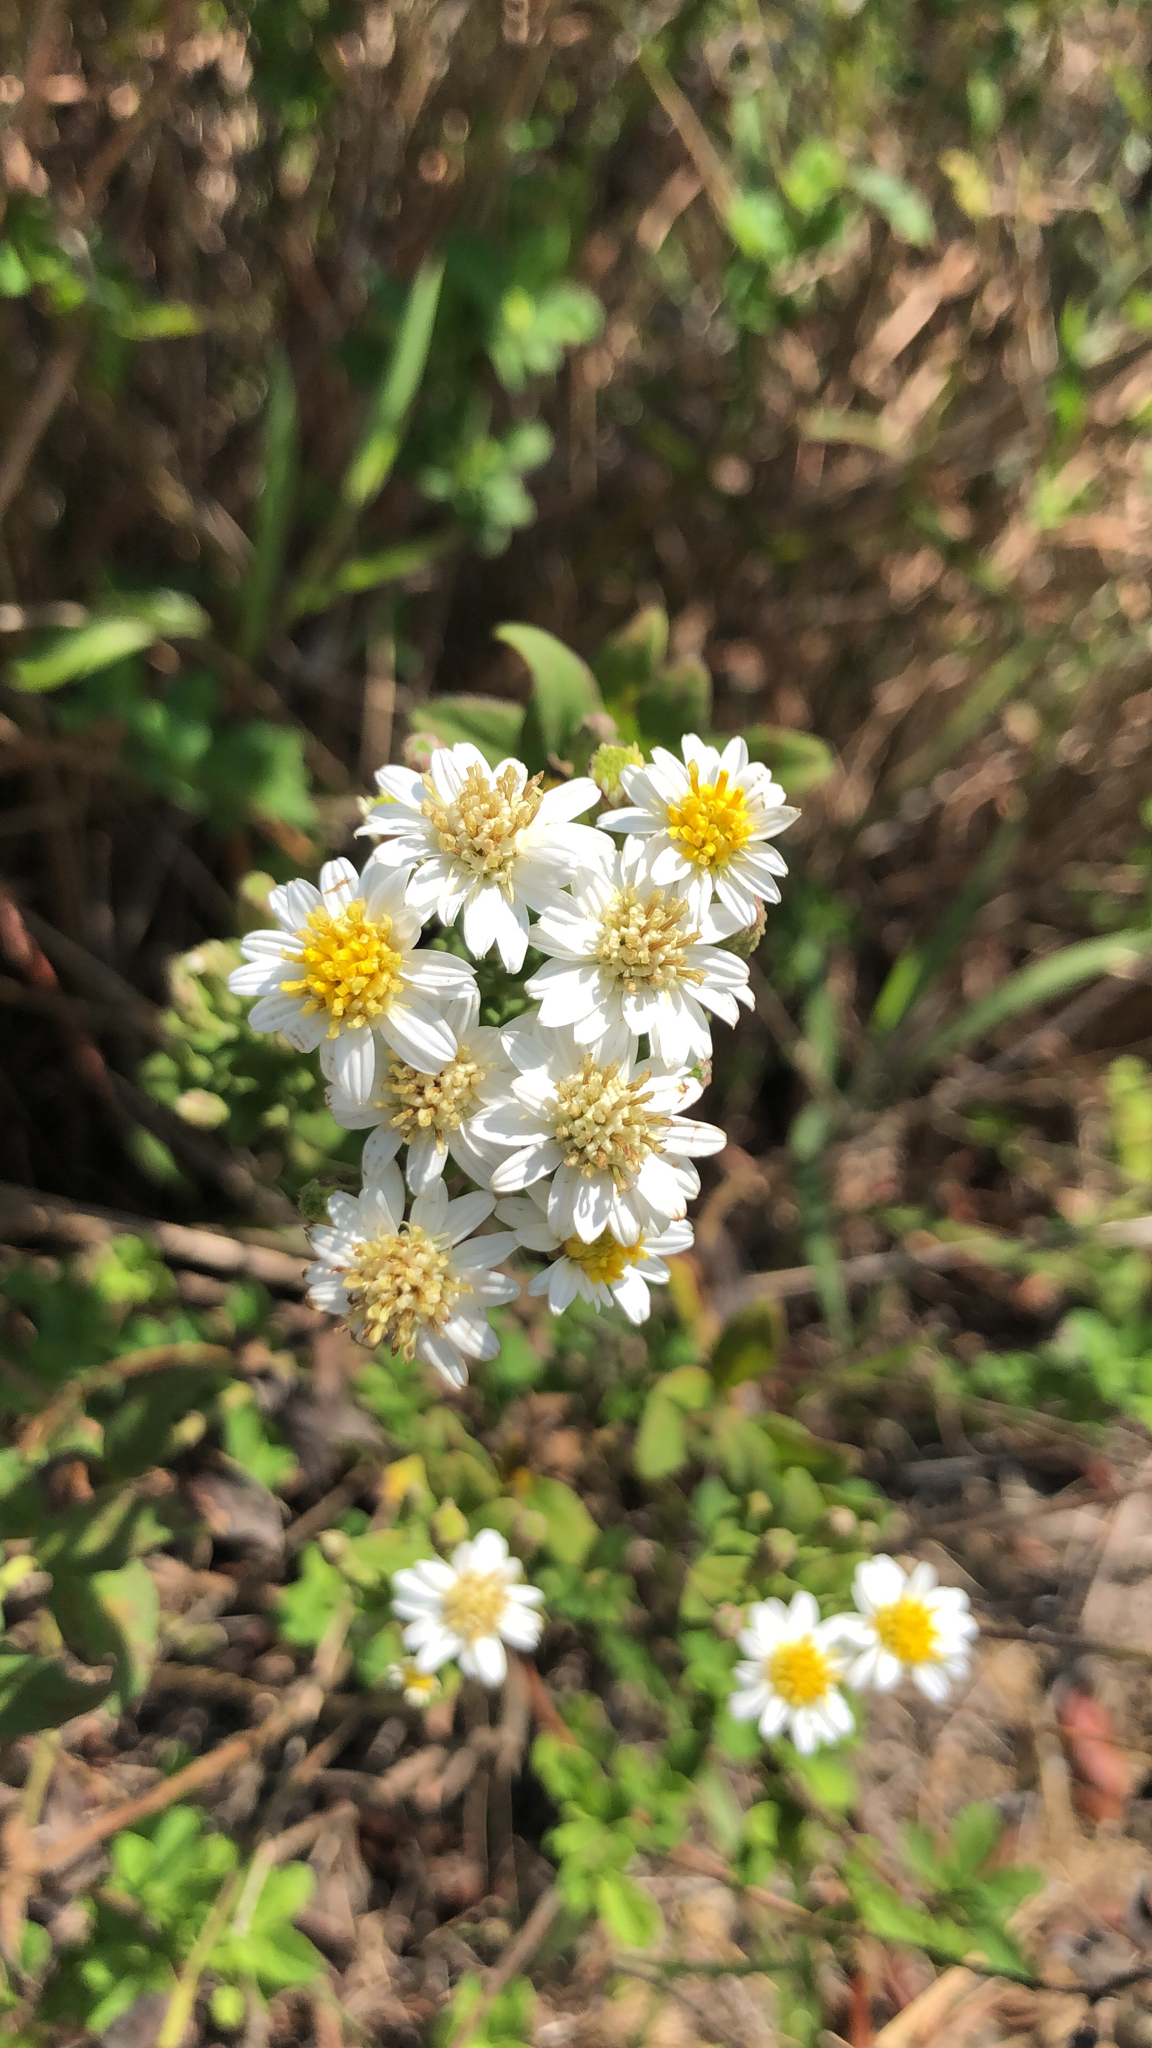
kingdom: Plantae
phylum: Tracheophyta
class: Magnoliopsida
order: Asterales
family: Asteraceae
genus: Aster
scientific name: Aster baccharoides
